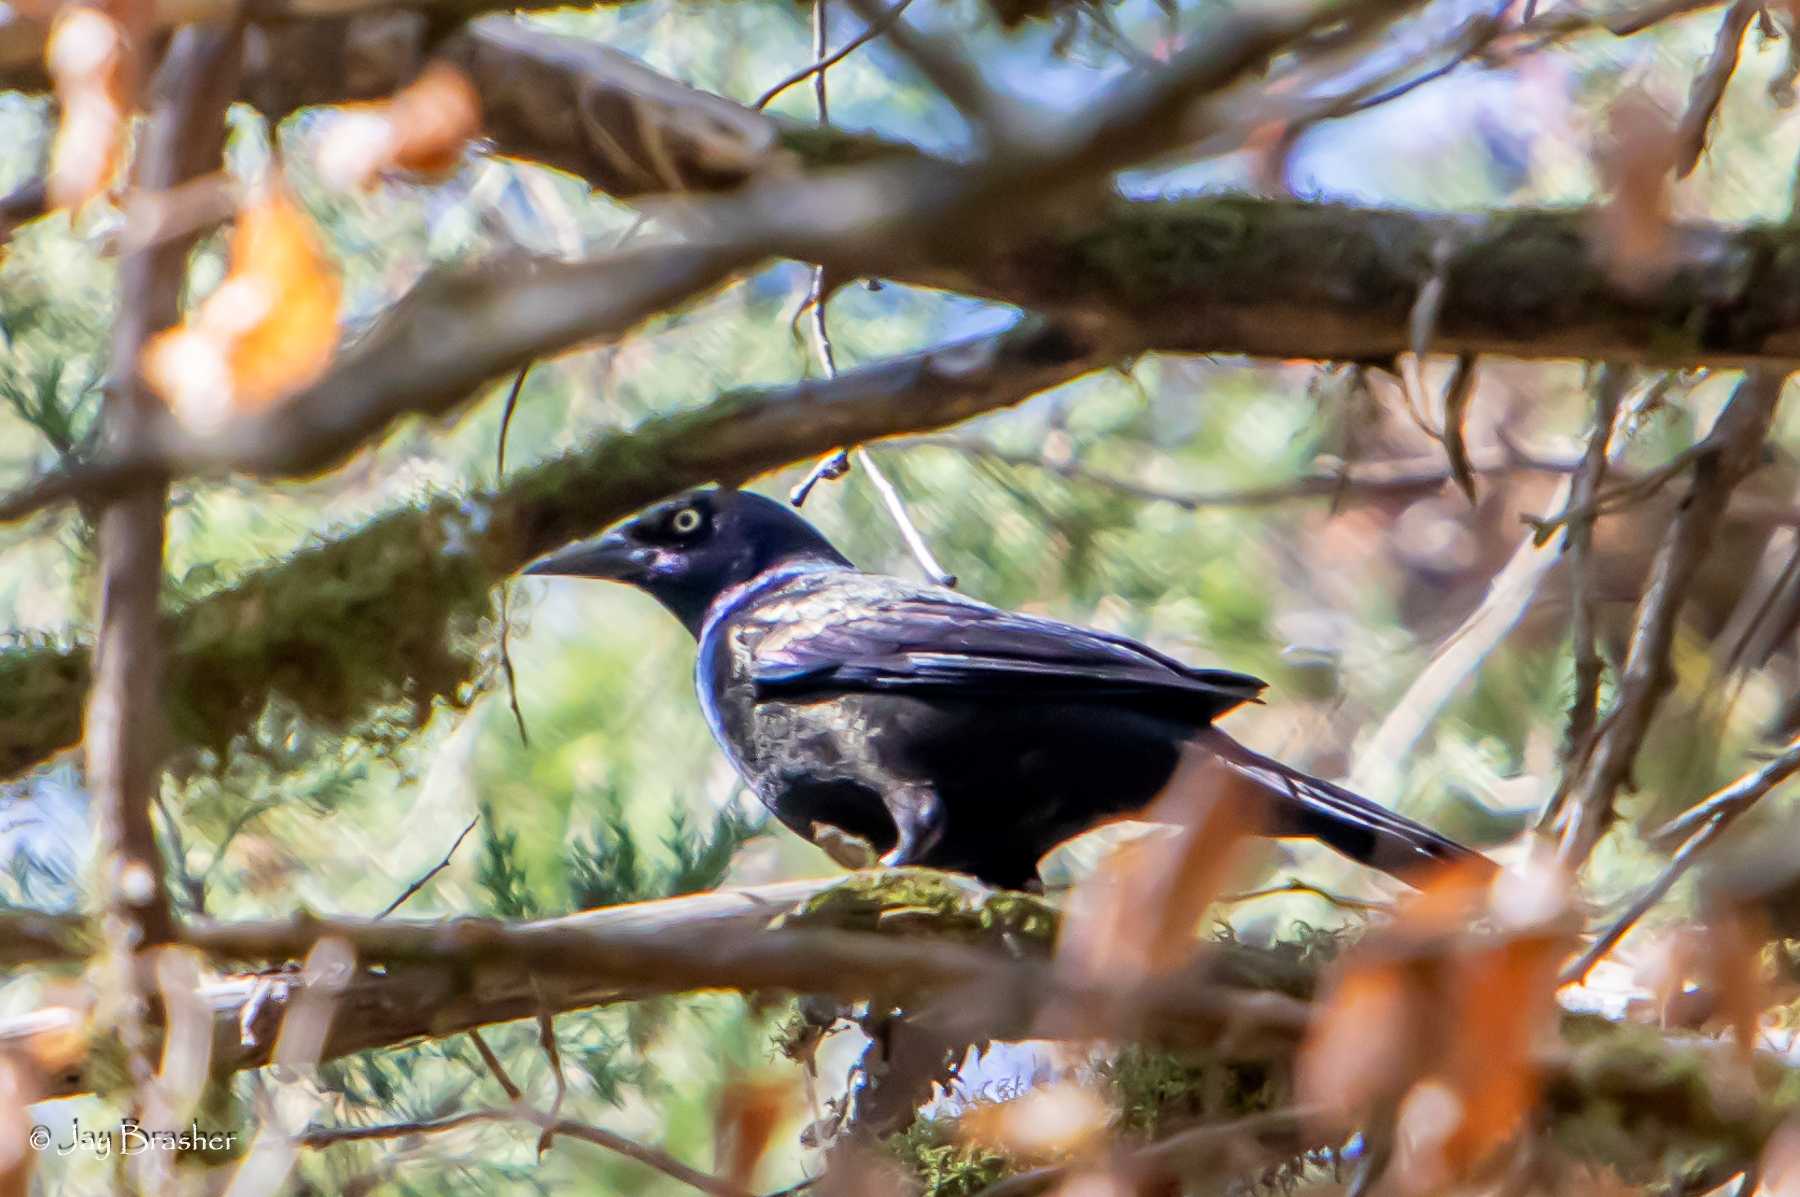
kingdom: Animalia
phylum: Chordata
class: Aves
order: Passeriformes
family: Icteridae
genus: Quiscalus
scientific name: Quiscalus quiscula
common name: Common grackle
